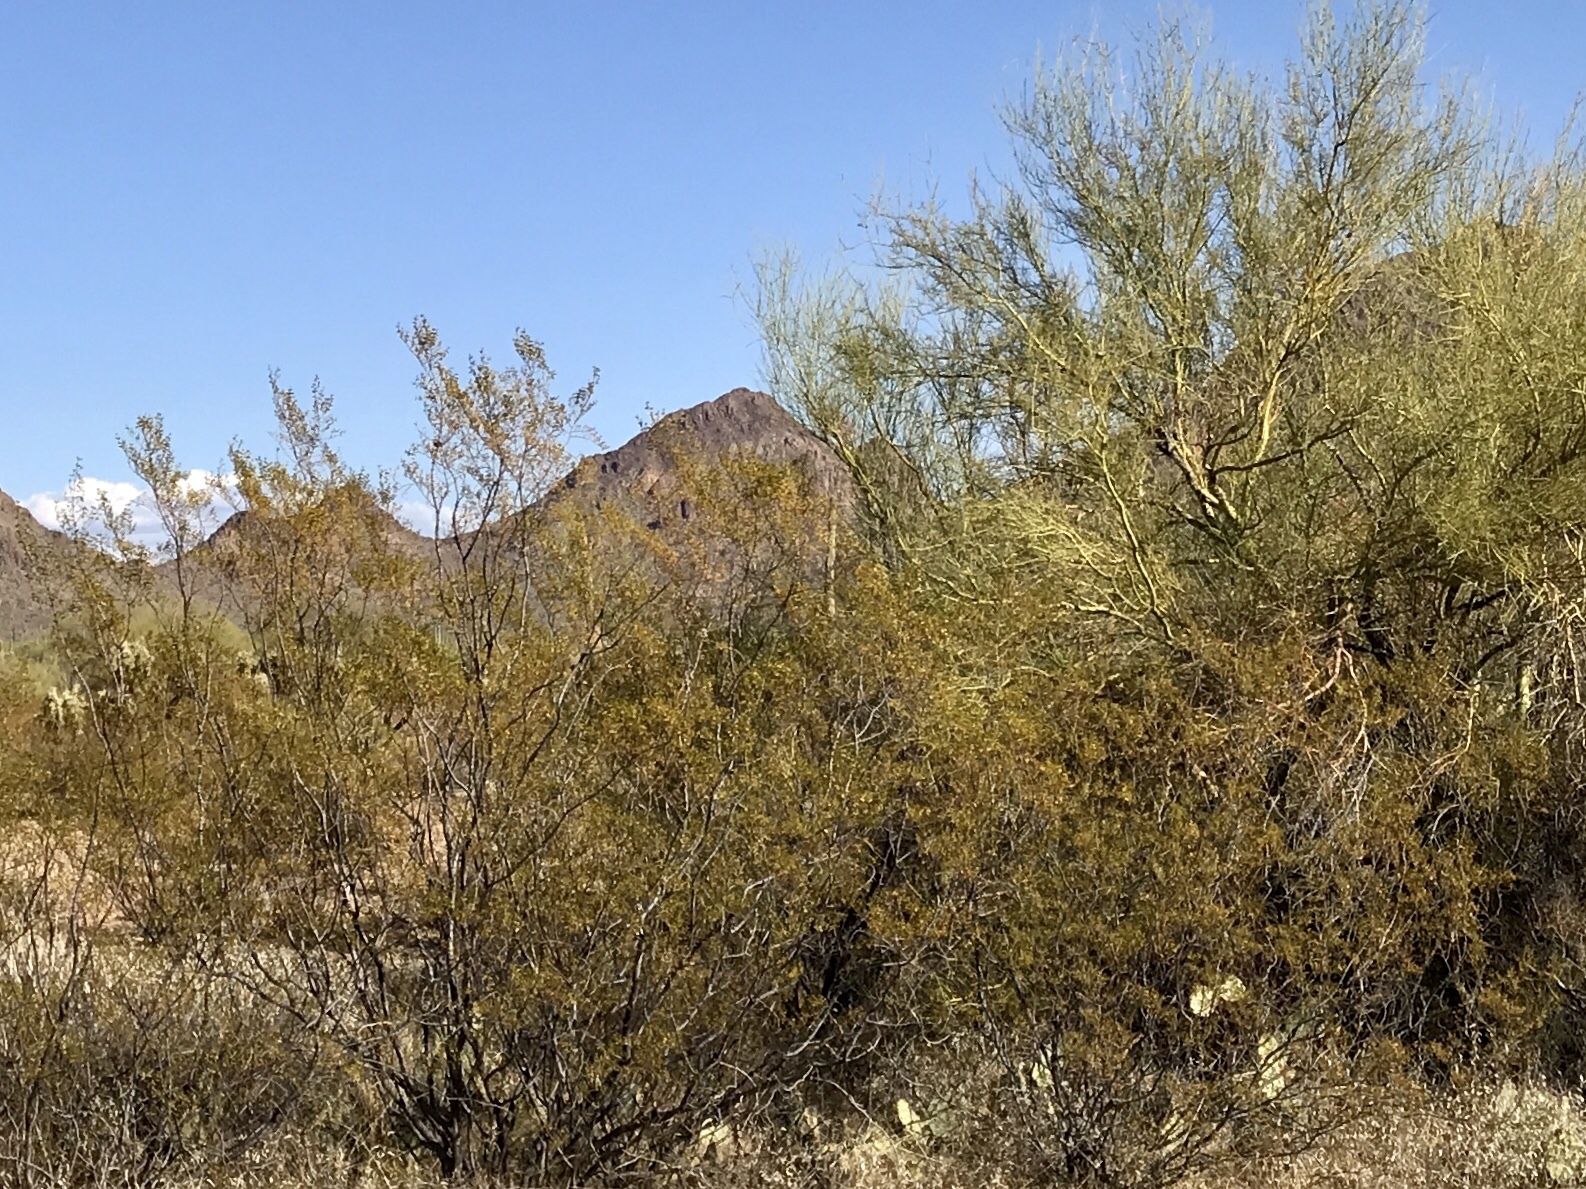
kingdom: Plantae
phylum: Tracheophyta
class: Magnoliopsida
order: Zygophyllales
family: Zygophyllaceae
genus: Larrea
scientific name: Larrea tridentata
